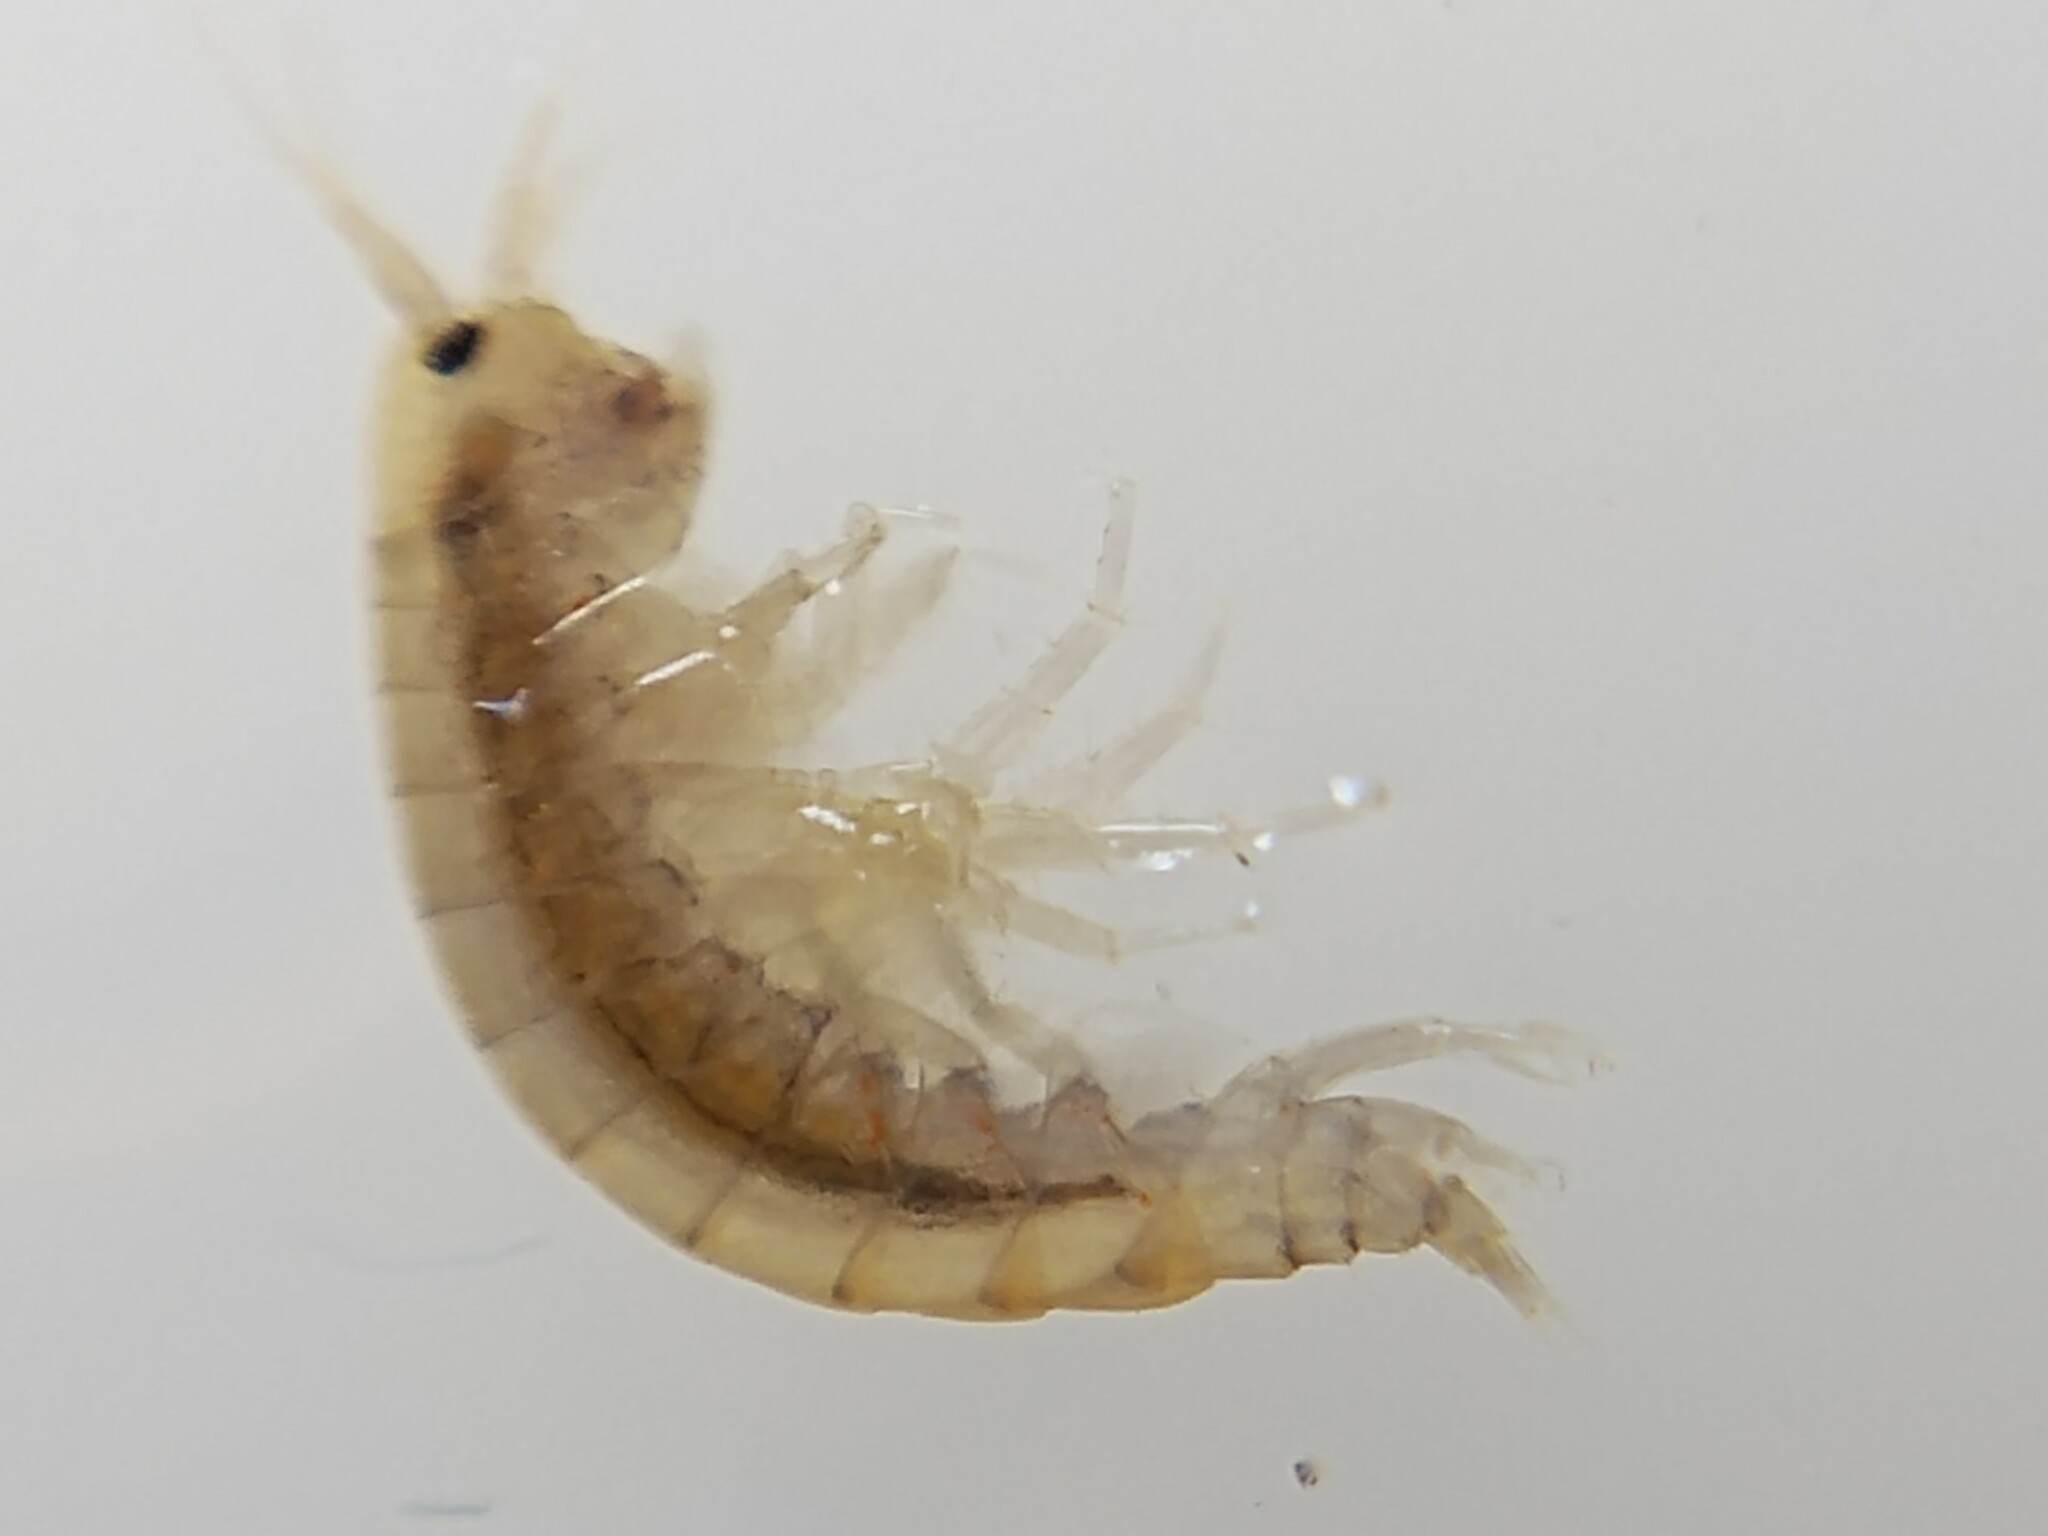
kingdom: Animalia
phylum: Arthropoda
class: Malacostraca
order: Amphipoda
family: Gammaridae
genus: Gammarus
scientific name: Gammarus
